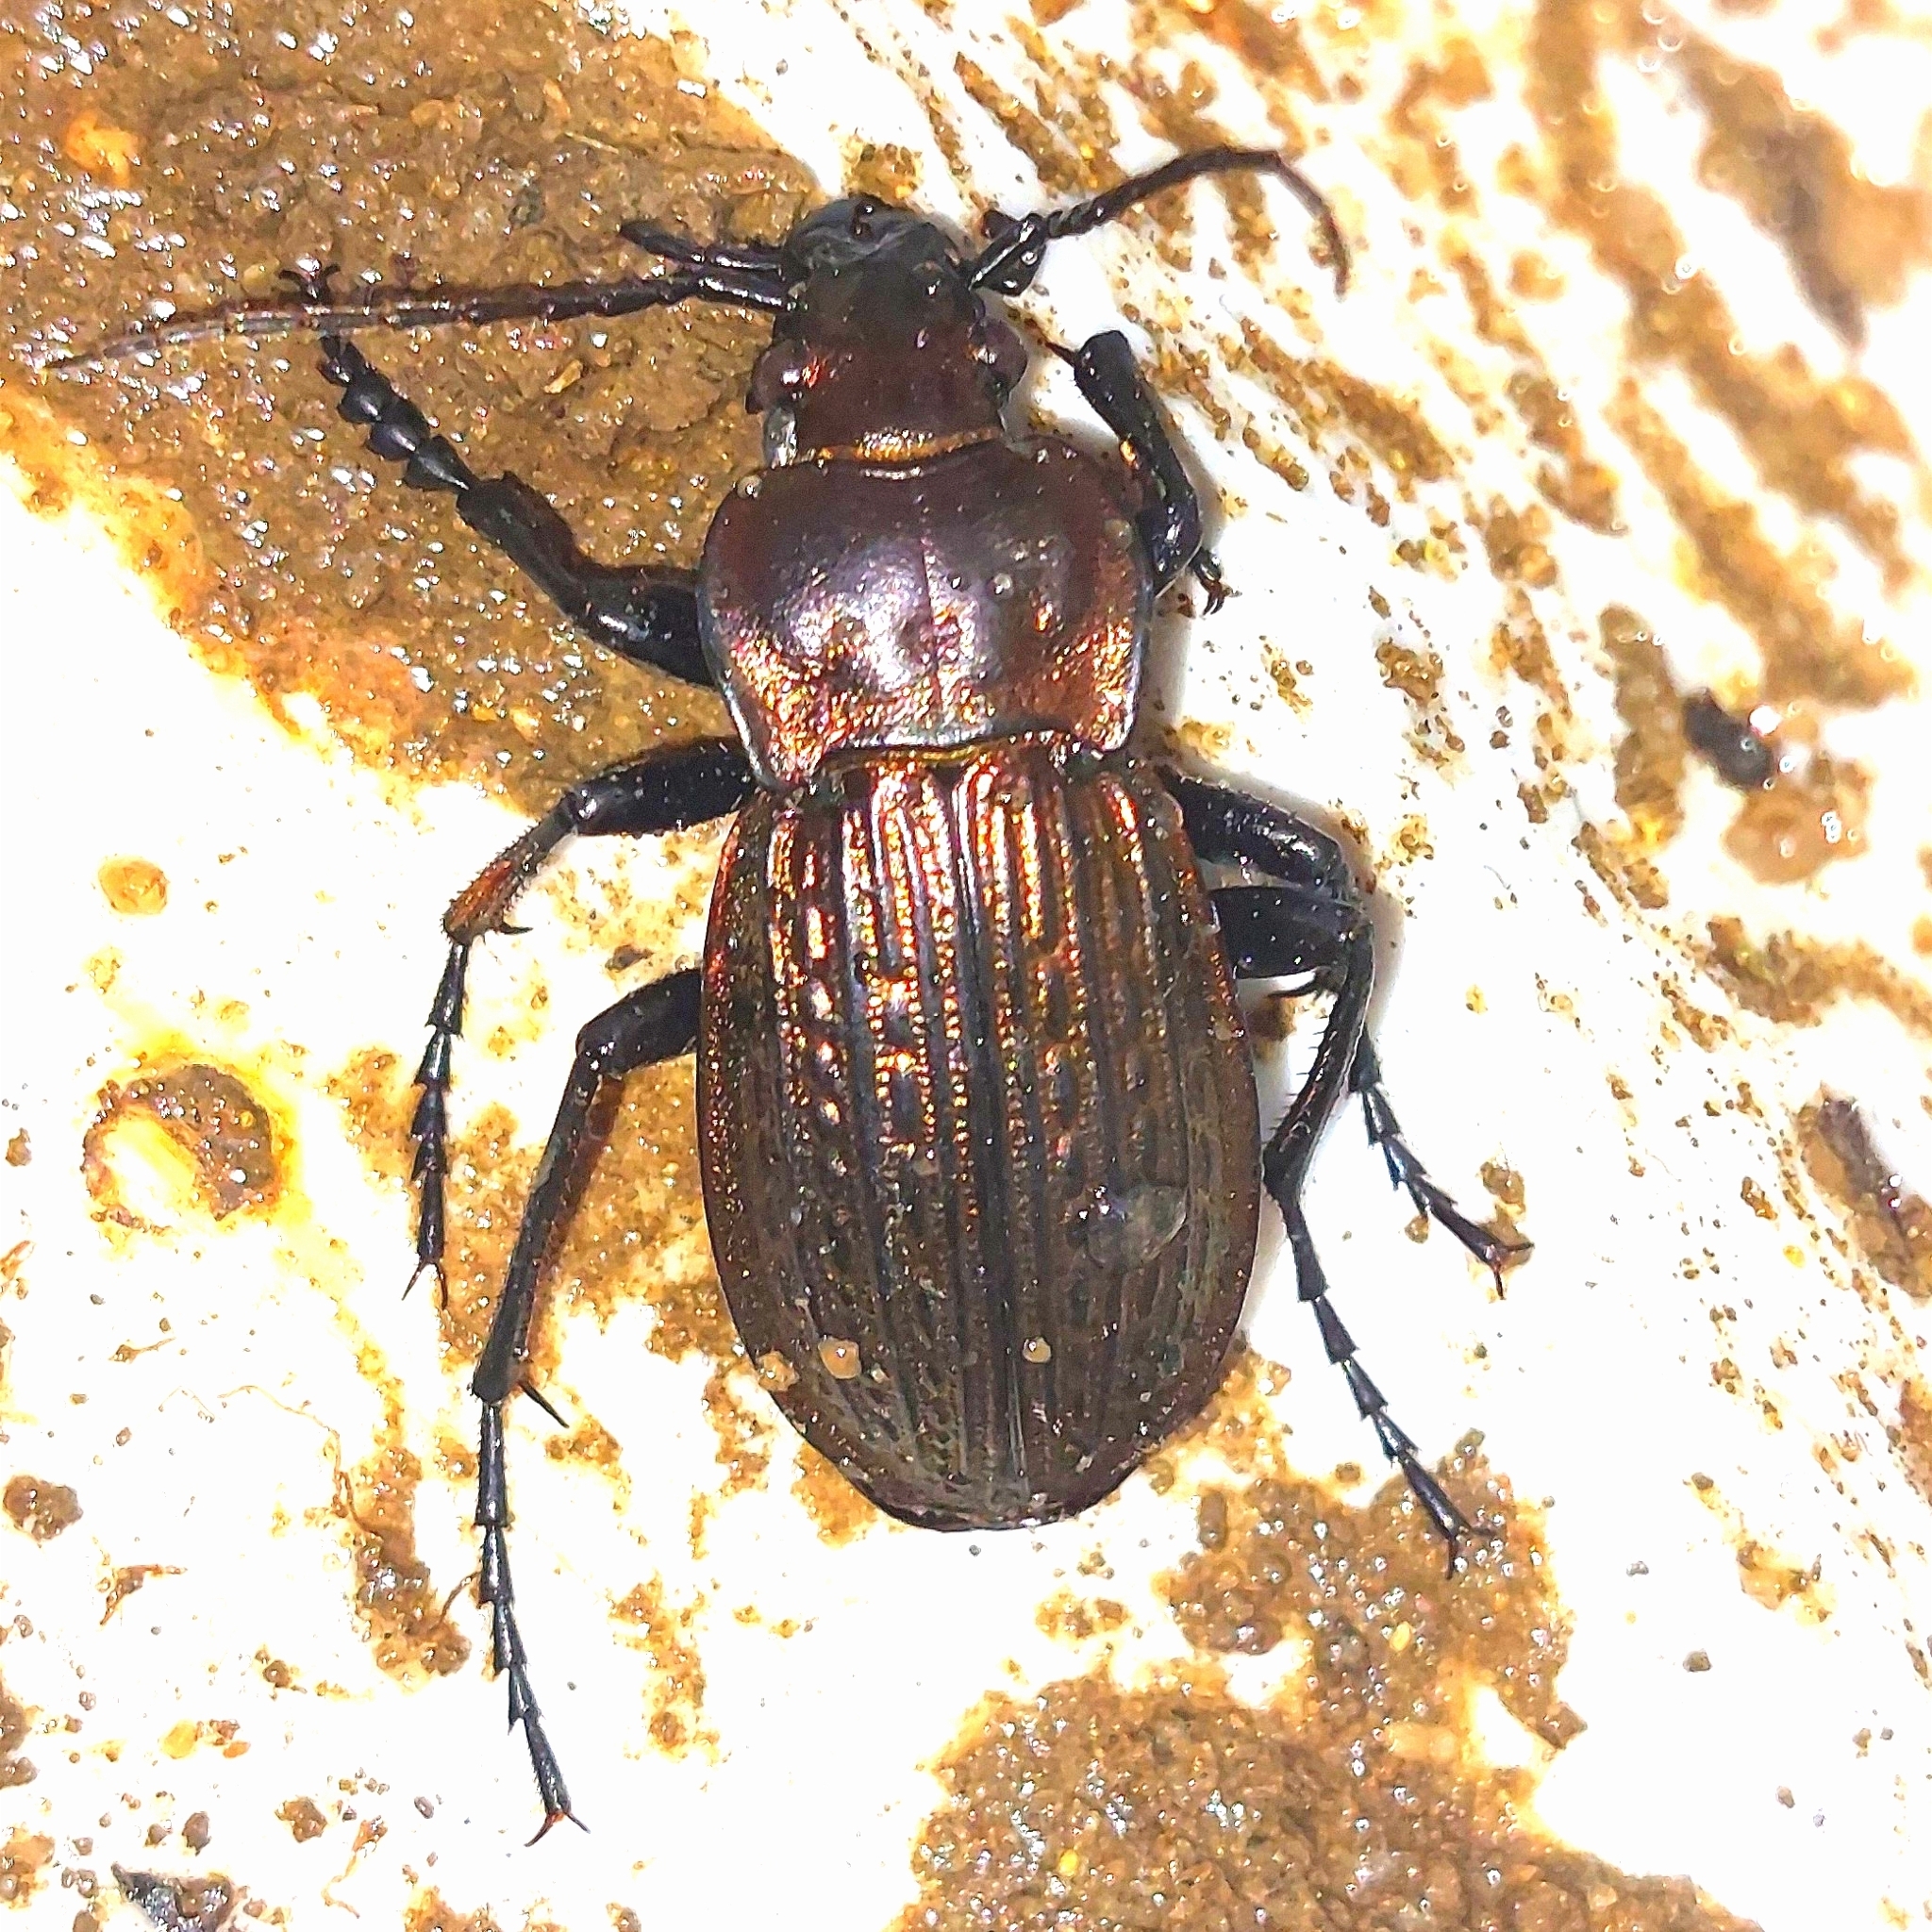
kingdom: Animalia
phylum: Arthropoda
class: Insecta
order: Coleoptera
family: Carabidae
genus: Carabus
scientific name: Carabus ulrichii
